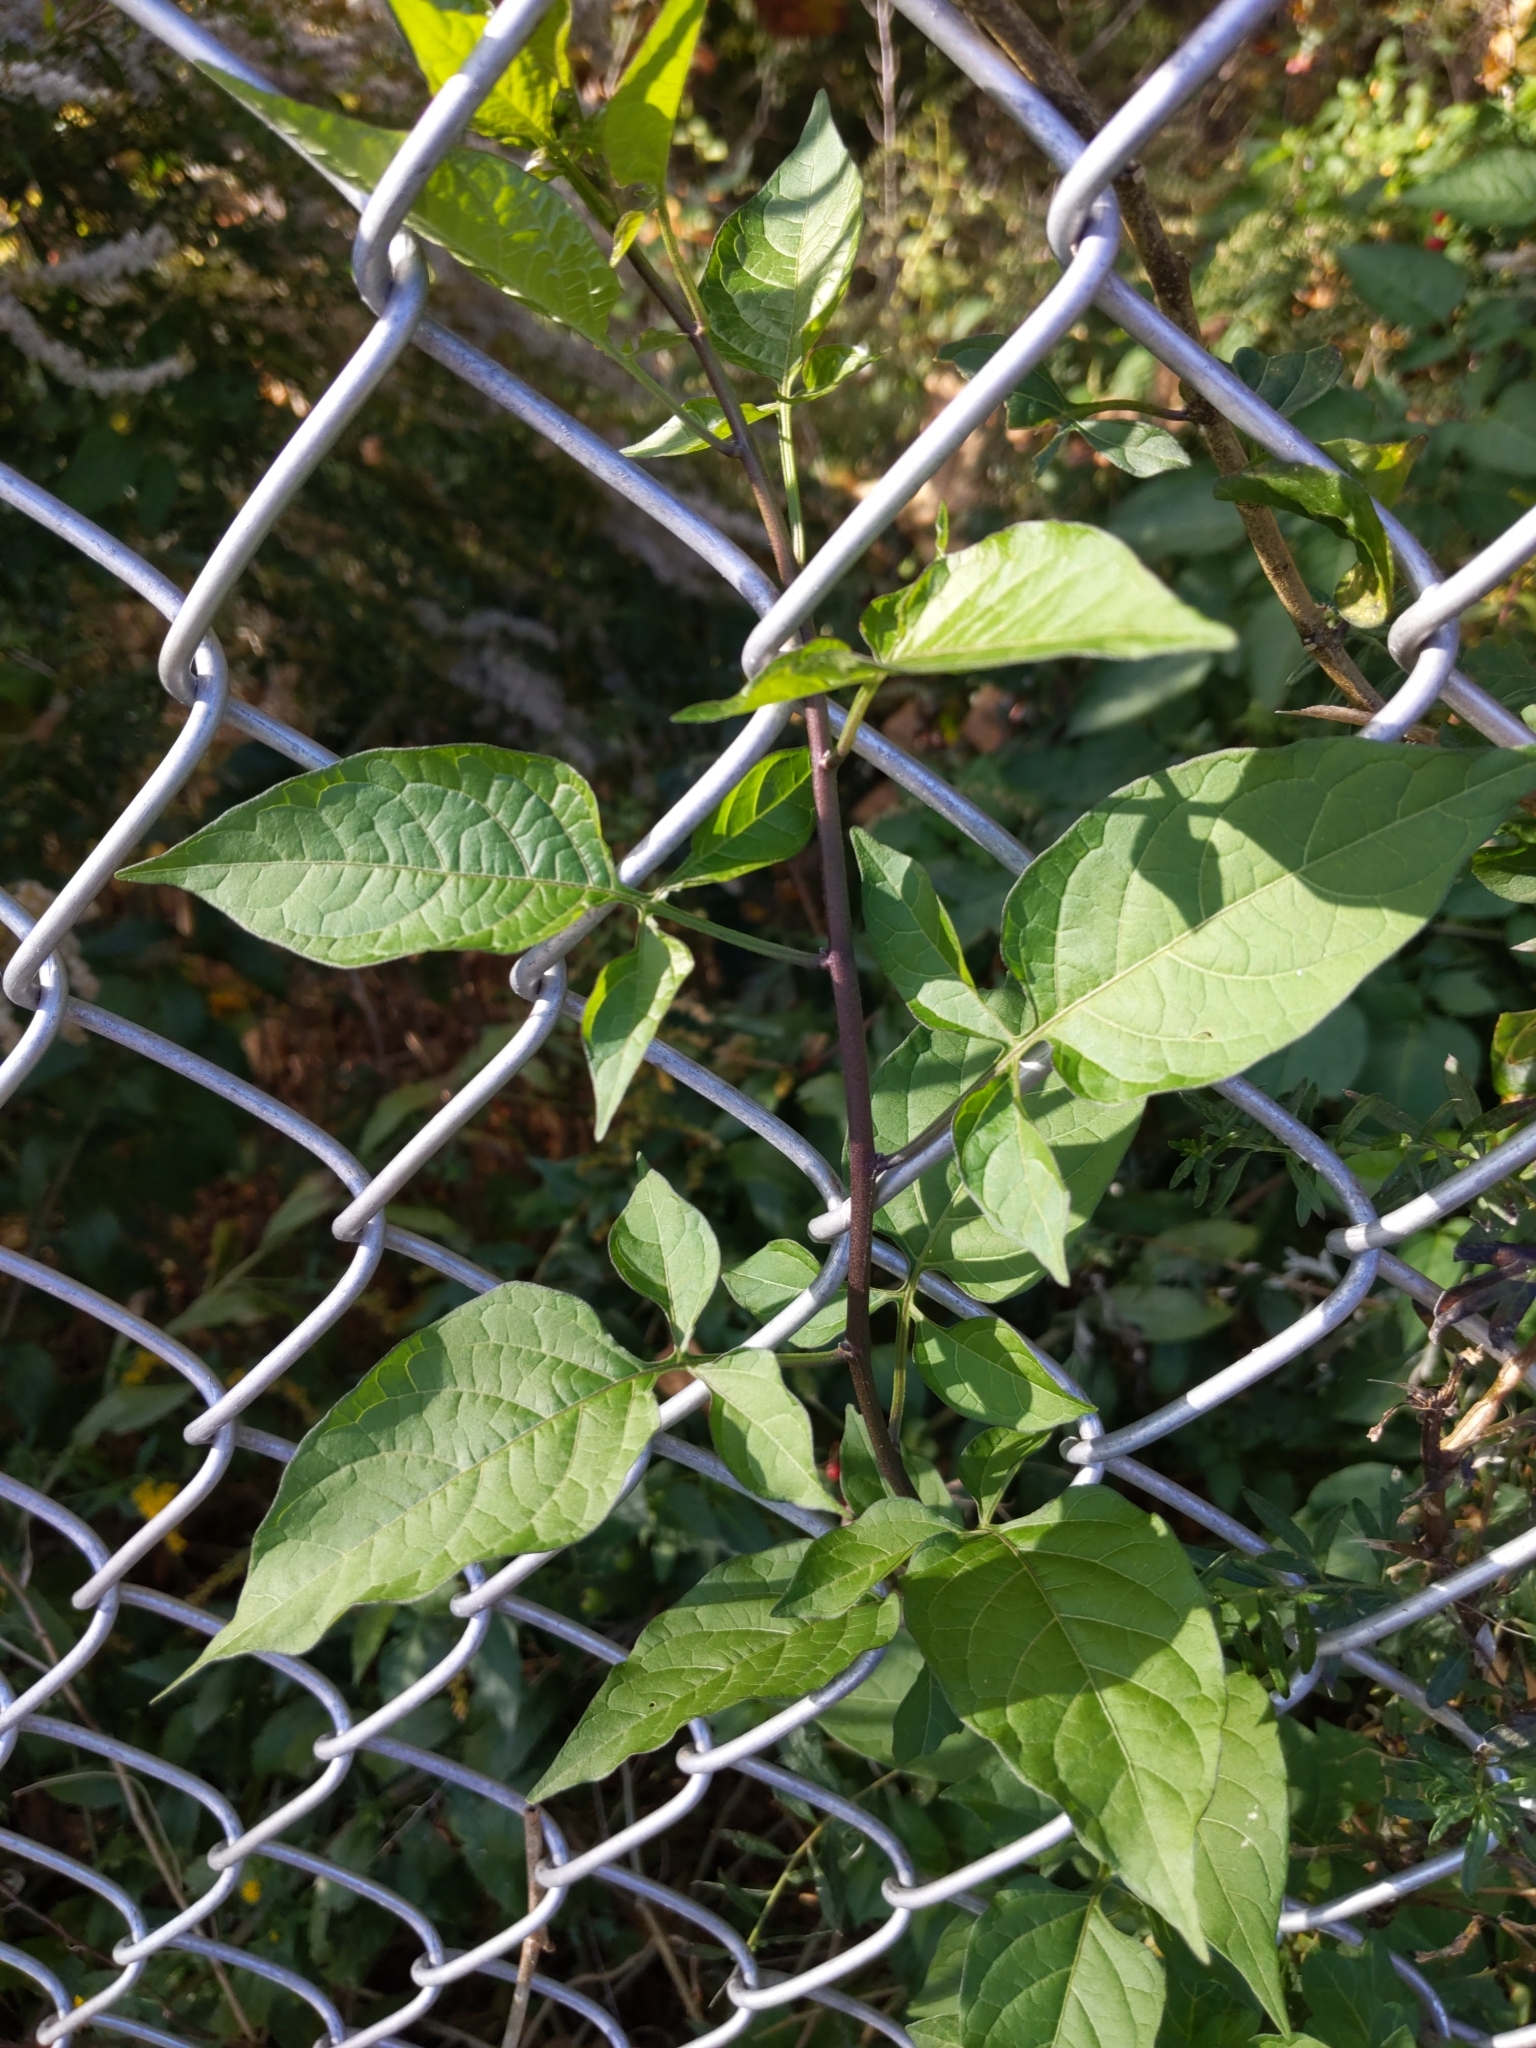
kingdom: Plantae
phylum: Tracheophyta
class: Magnoliopsida
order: Solanales
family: Solanaceae
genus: Solanum
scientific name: Solanum dulcamara
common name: Climbing nightshade
